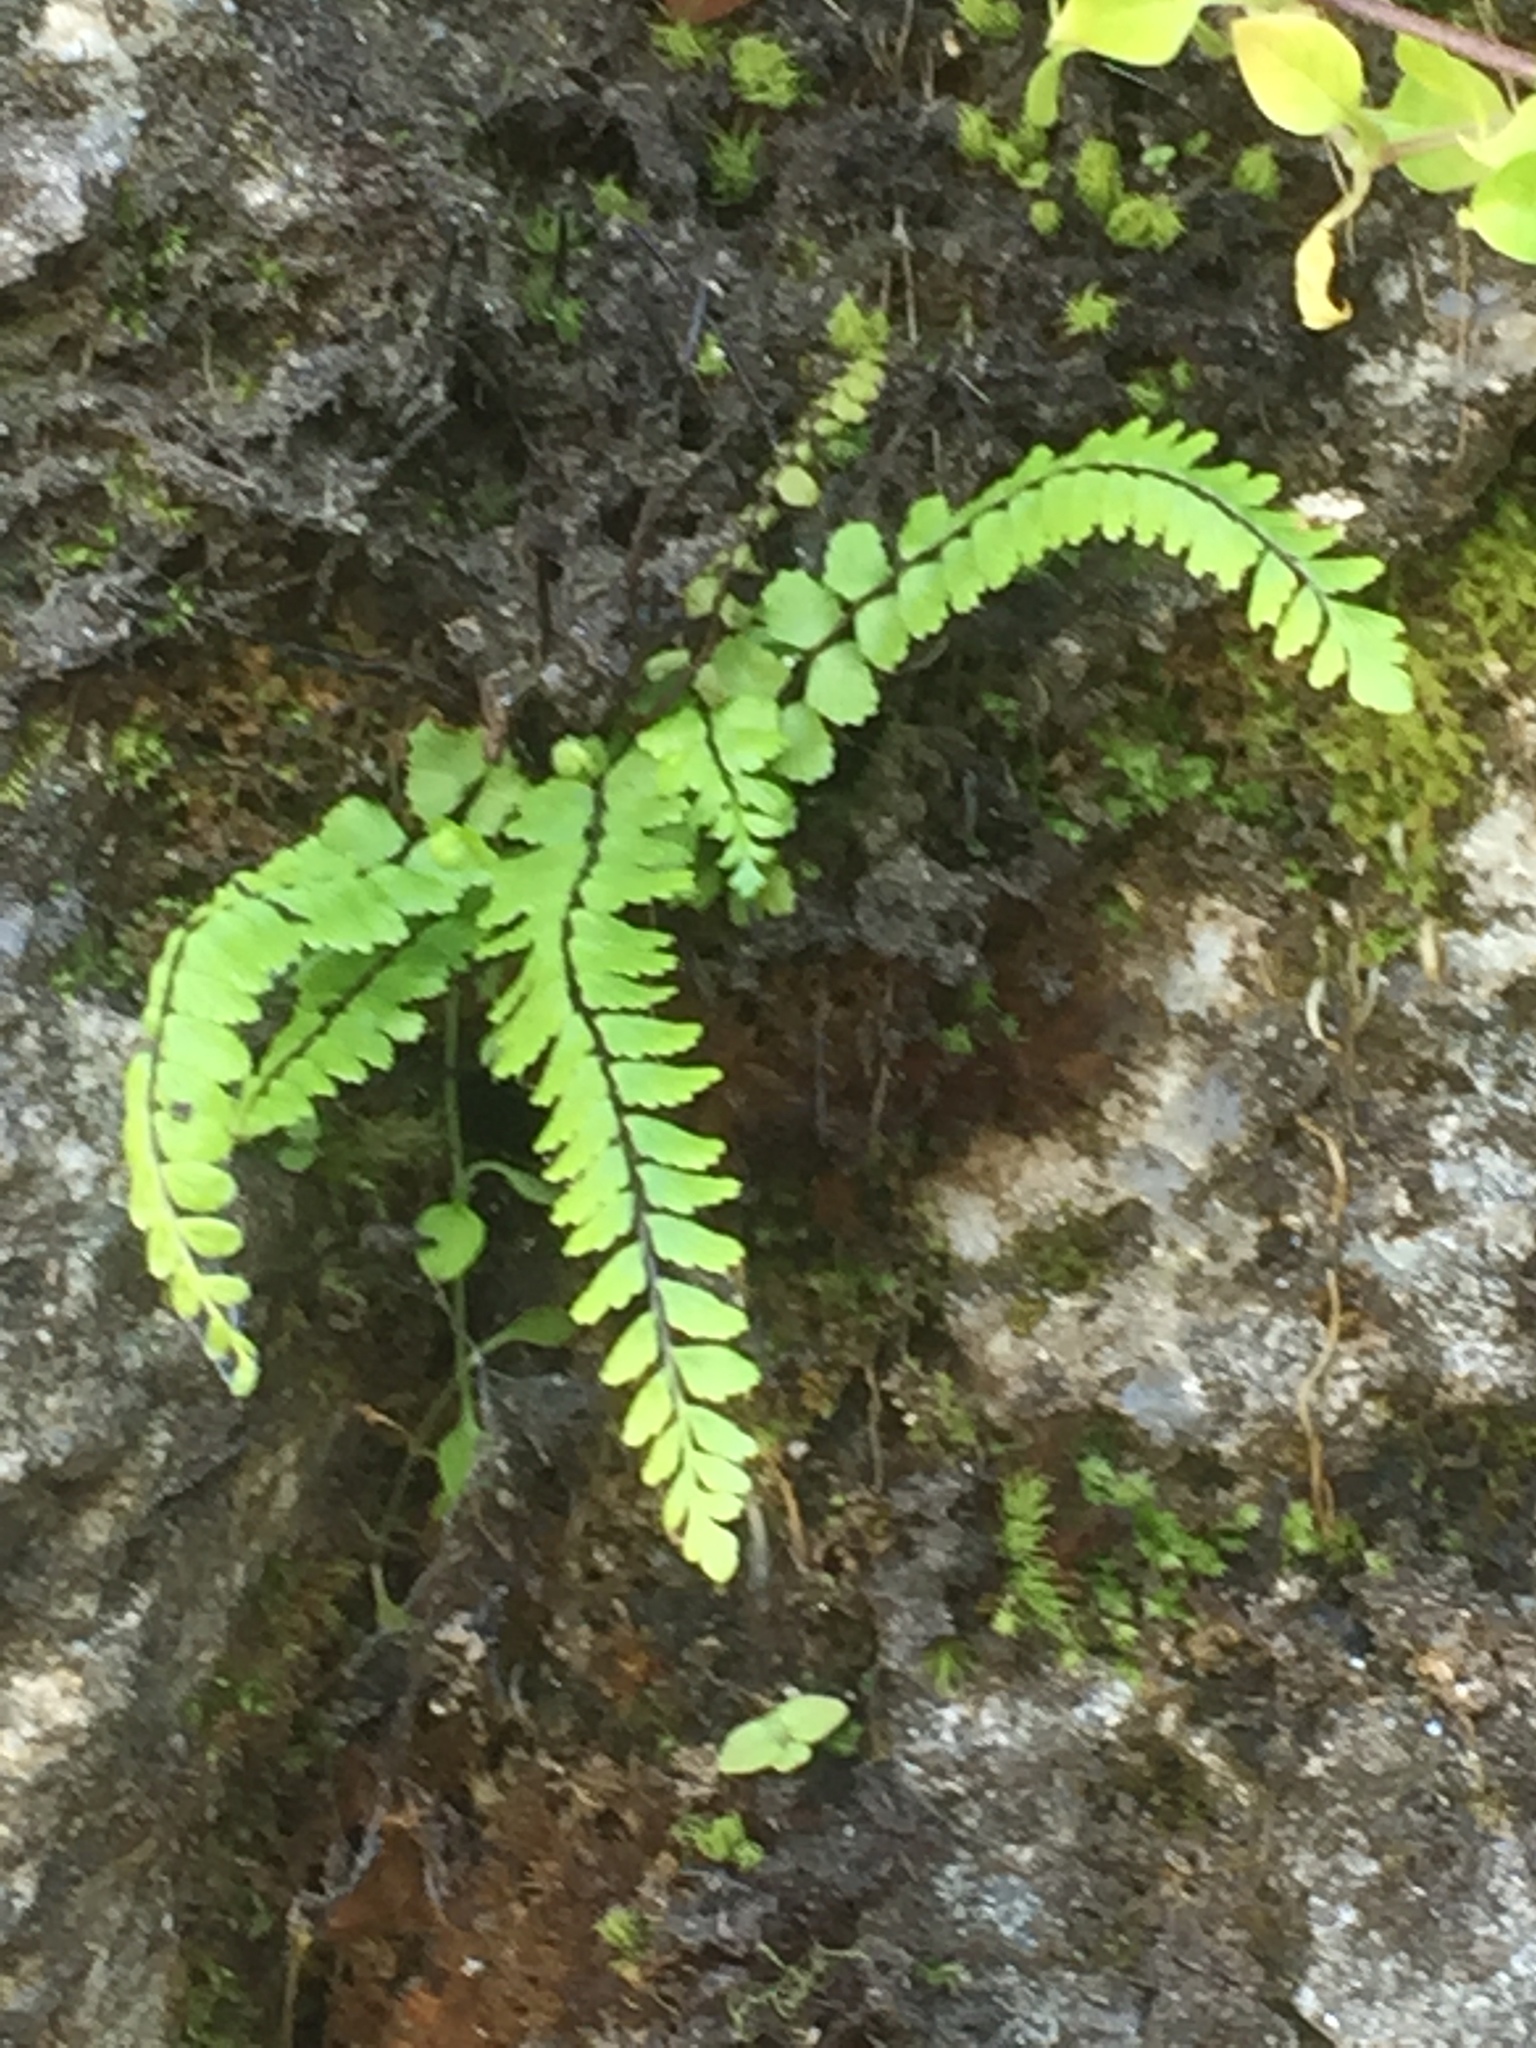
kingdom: Plantae
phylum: Tracheophyta
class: Polypodiopsida
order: Polypodiales
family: Aspleniaceae
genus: Asplenium
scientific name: Asplenium trichomanes
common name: Maidenhair spleenwort
